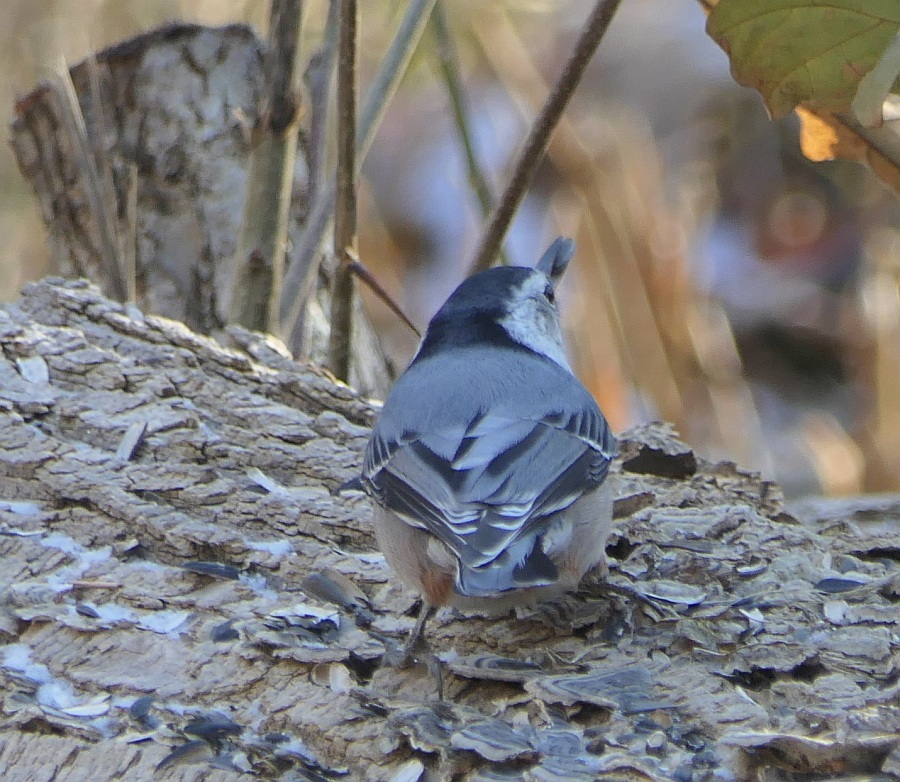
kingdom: Animalia
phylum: Chordata
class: Aves
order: Passeriformes
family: Sittidae
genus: Sitta
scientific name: Sitta carolinensis
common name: White-breasted nuthatch
